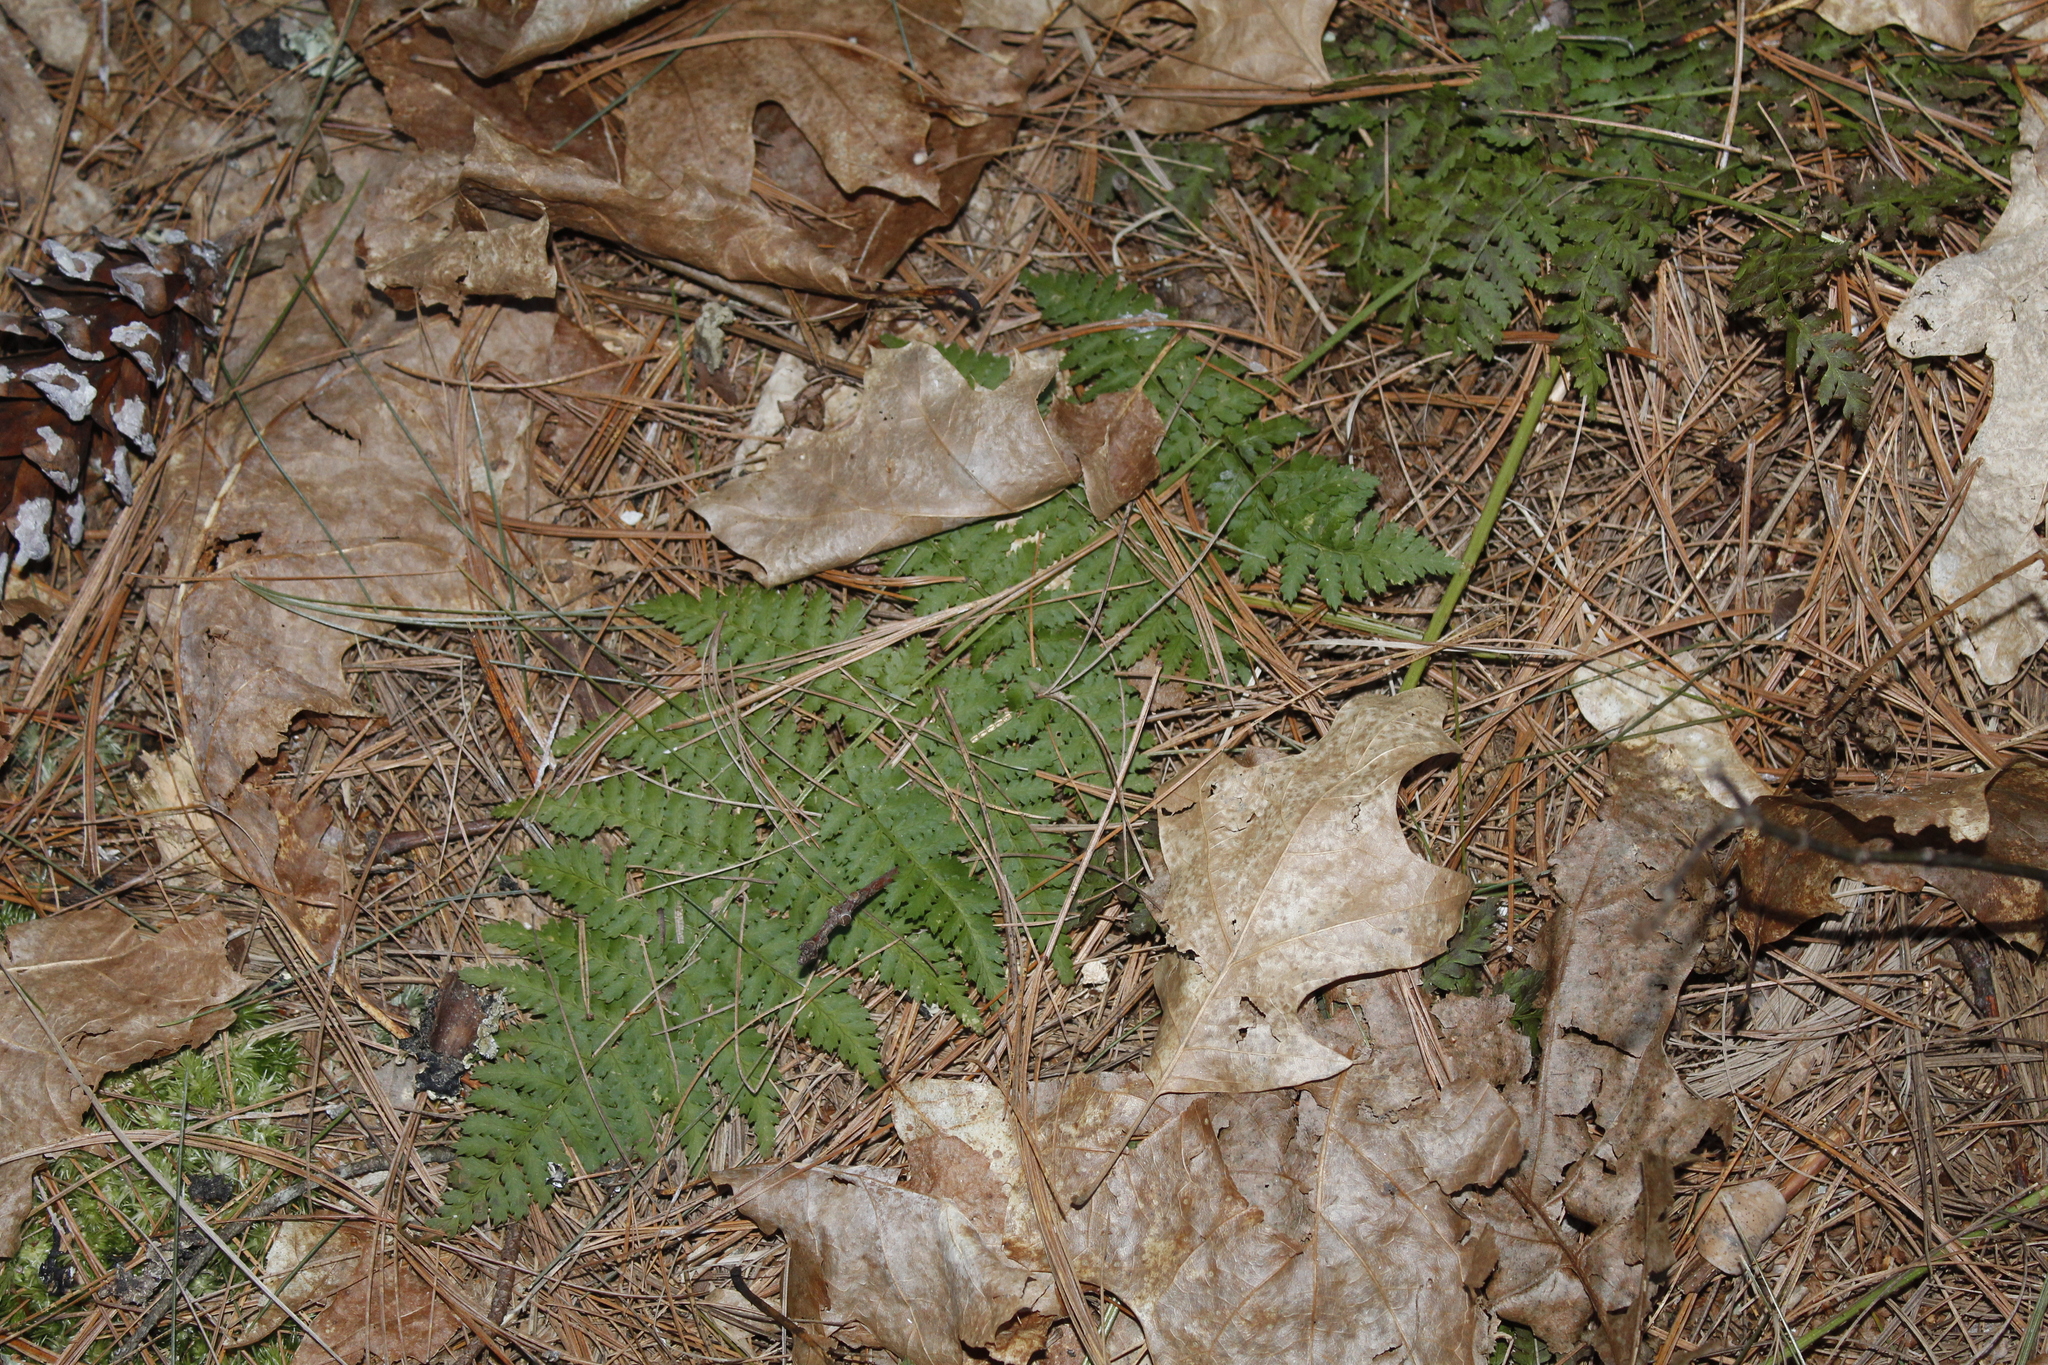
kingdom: Plantae
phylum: Tracheophyta
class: Polypodiopsida
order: Polypodiales
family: Dryopteridaceae
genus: Dryopteris
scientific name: Dryopteris intermedia
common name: Evergreen wood fern
